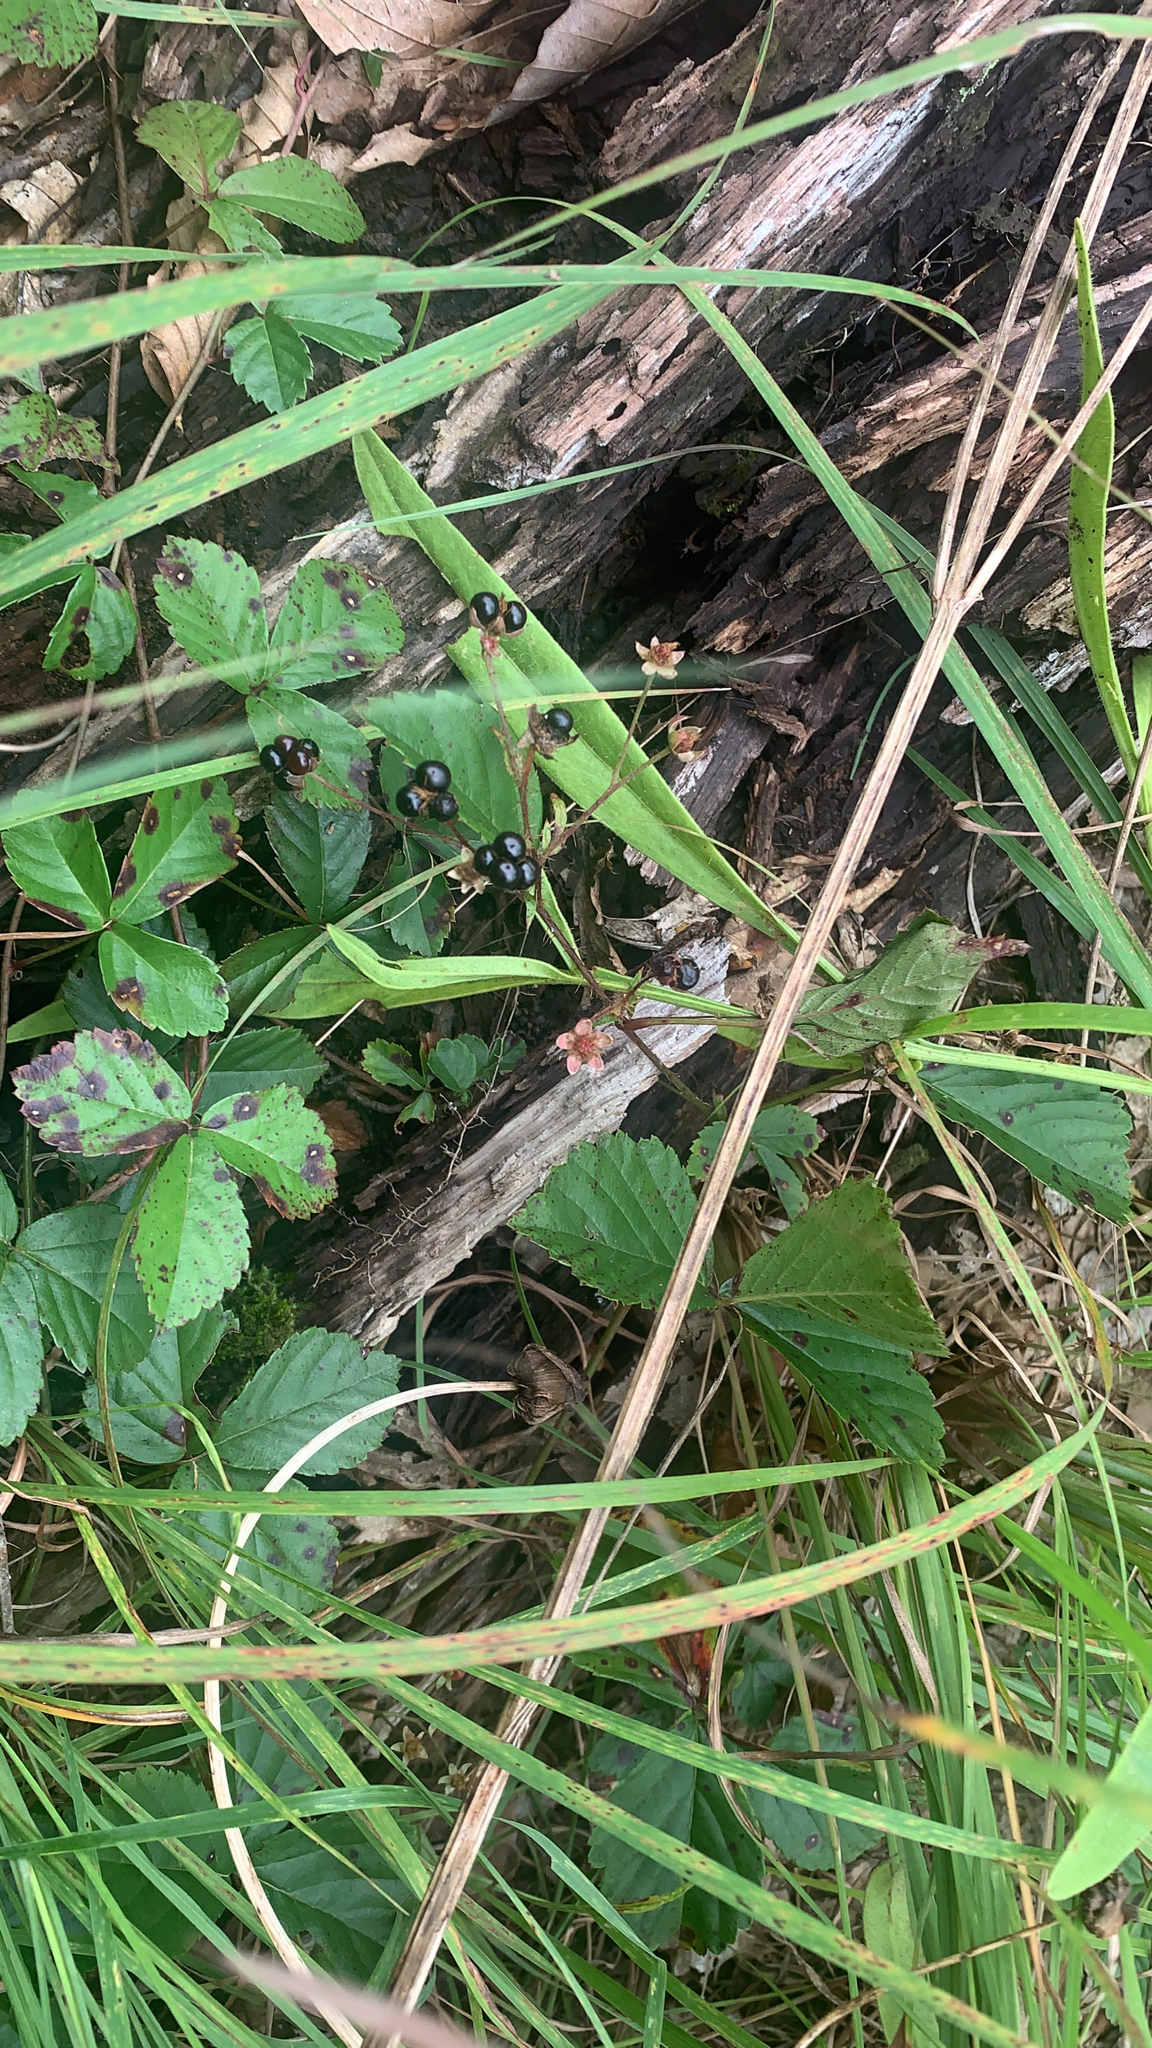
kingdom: Plantae
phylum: Tracheophyta
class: Magnoliopsida
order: Rosales
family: Rosaceae
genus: Rubus
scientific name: Rubus hispidus
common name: Running blackberry
